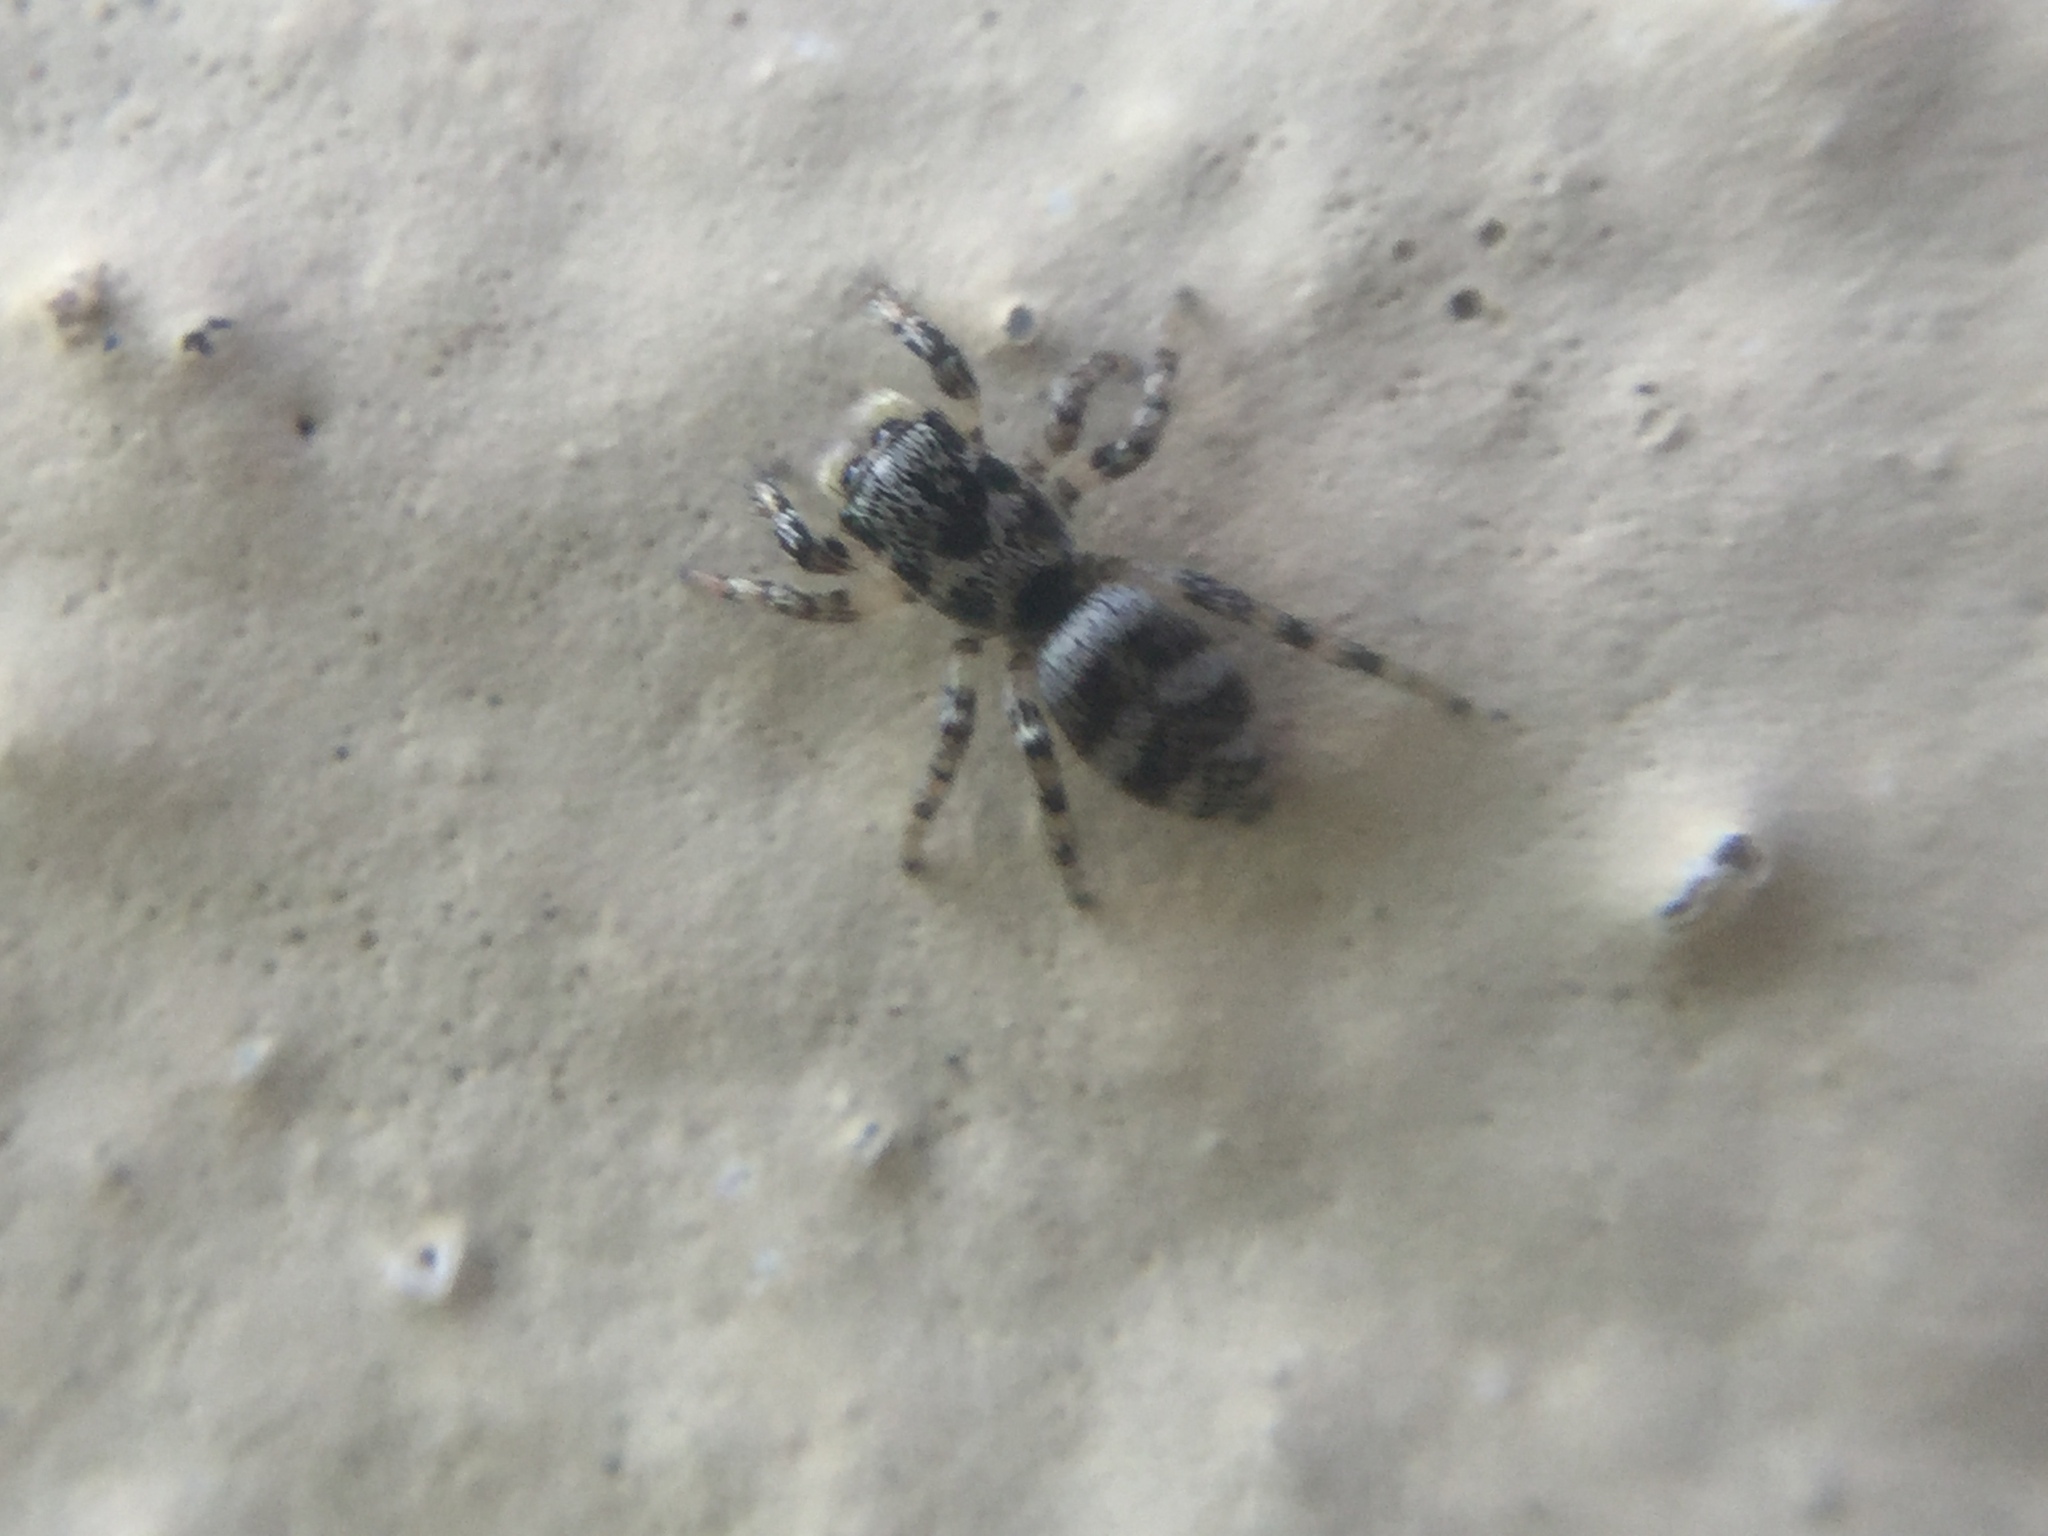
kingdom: Animalia
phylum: Arthropoda
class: Arachnida
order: Araneae
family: Salticidae
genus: Salticus
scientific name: Salticus scenicus
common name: Zebra jumper
